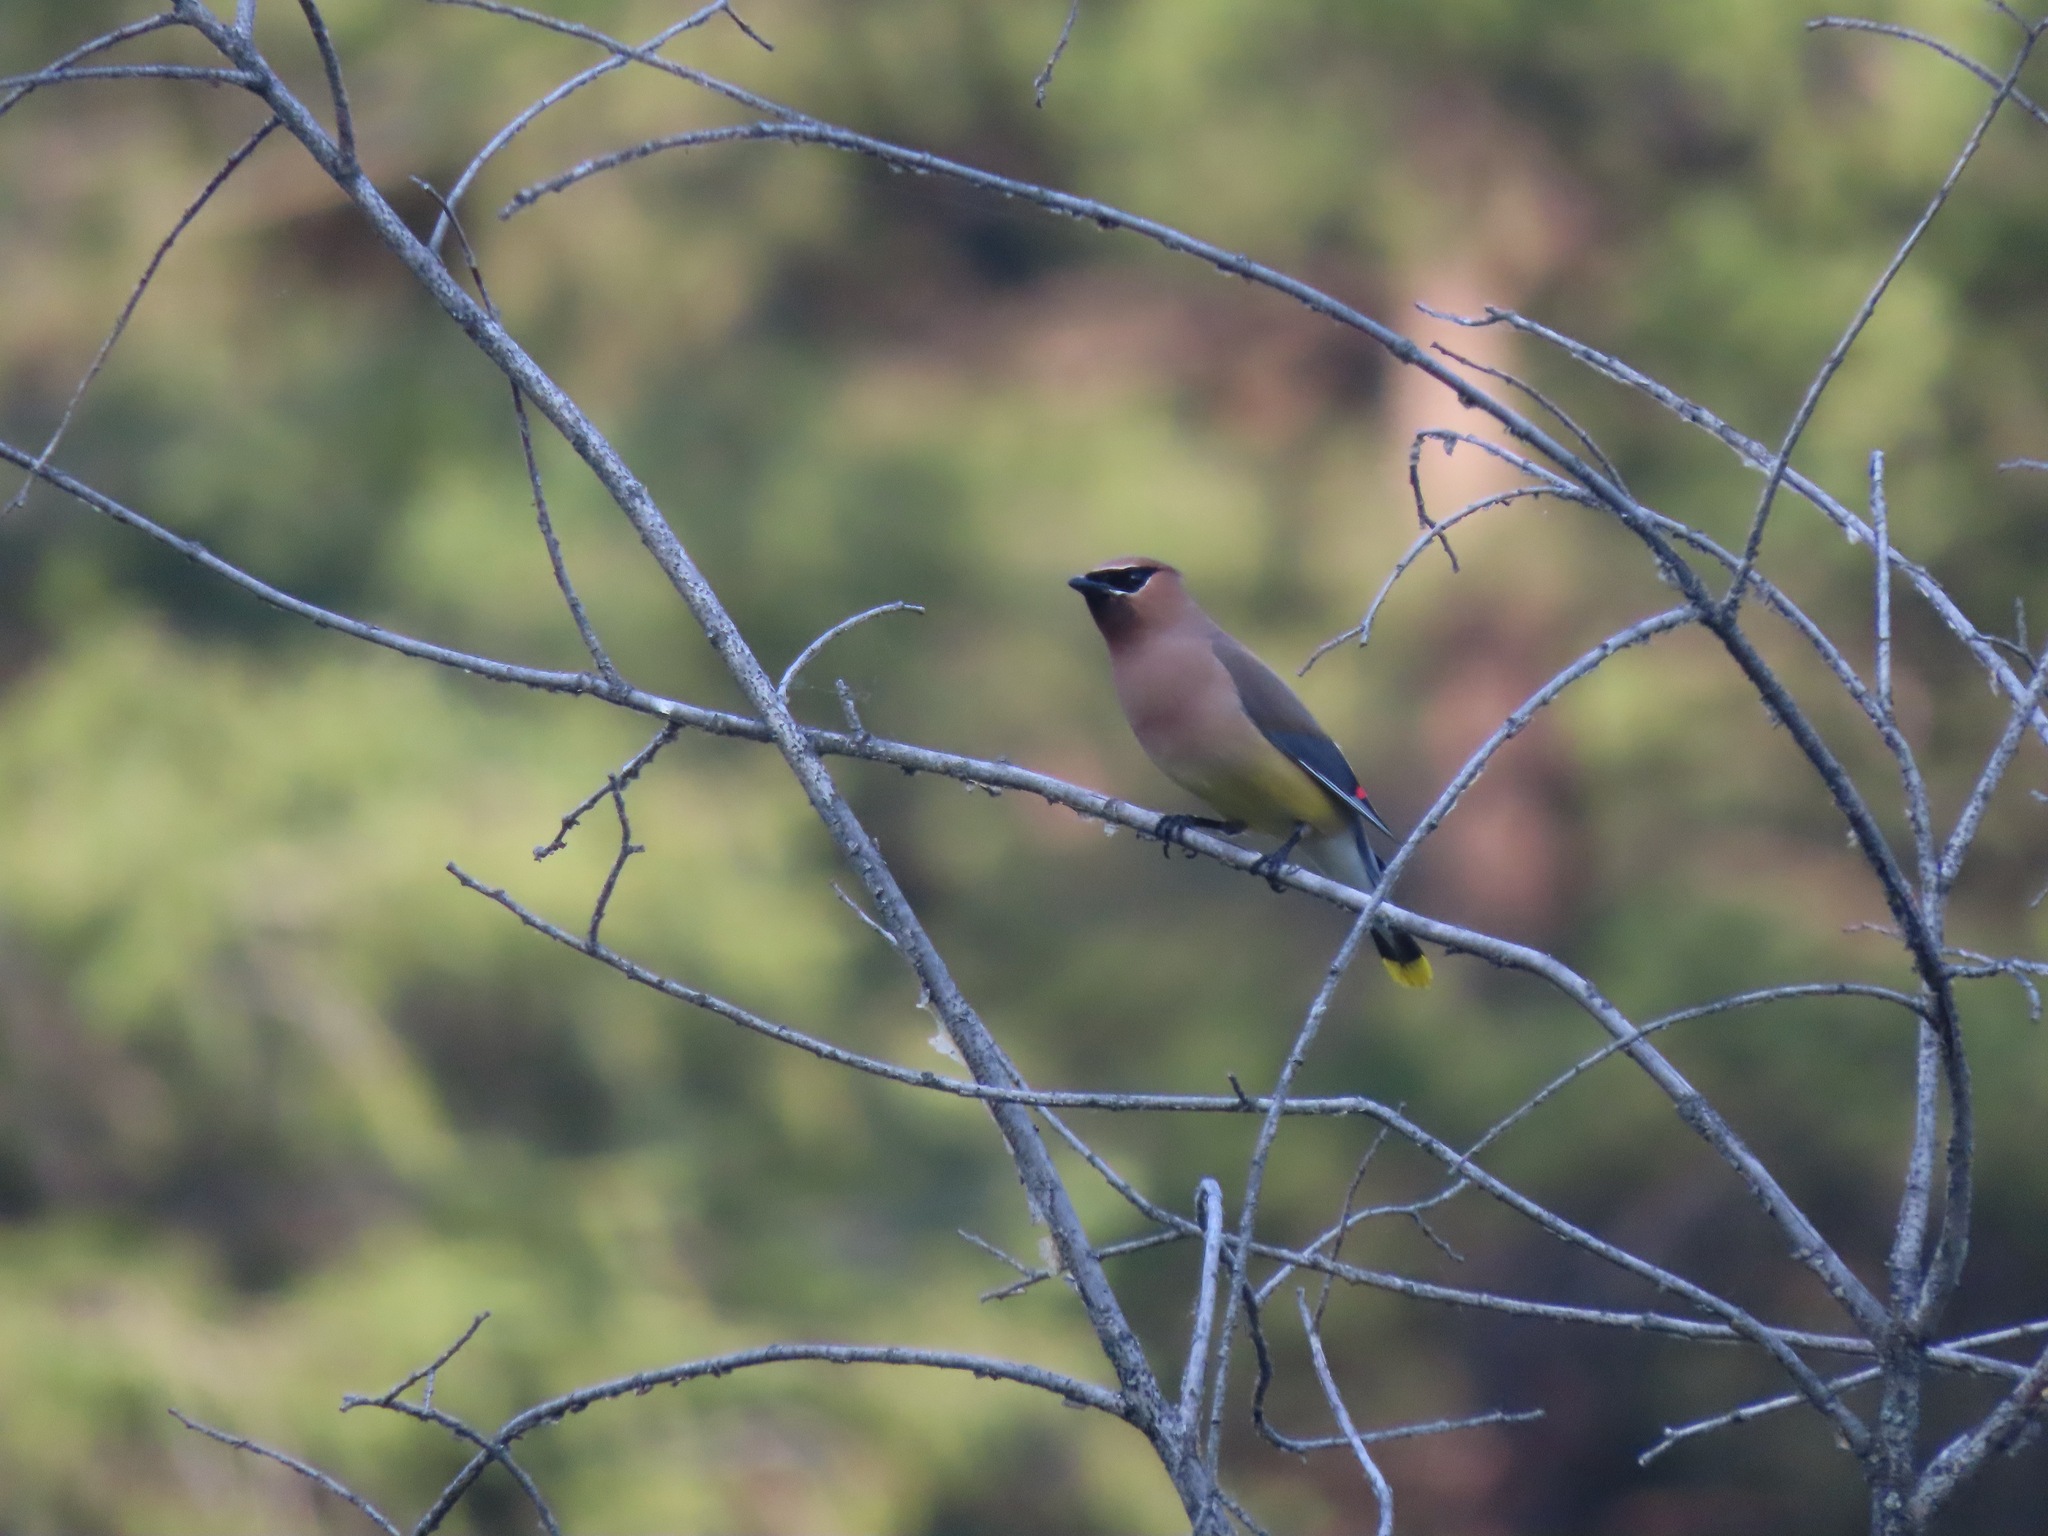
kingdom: Animalia
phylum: Chordata
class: Aves
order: Passeriformes
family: Bombycillidae
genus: Bombycilla
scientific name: Bombycilla cedrorum
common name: Cedar waxwing
